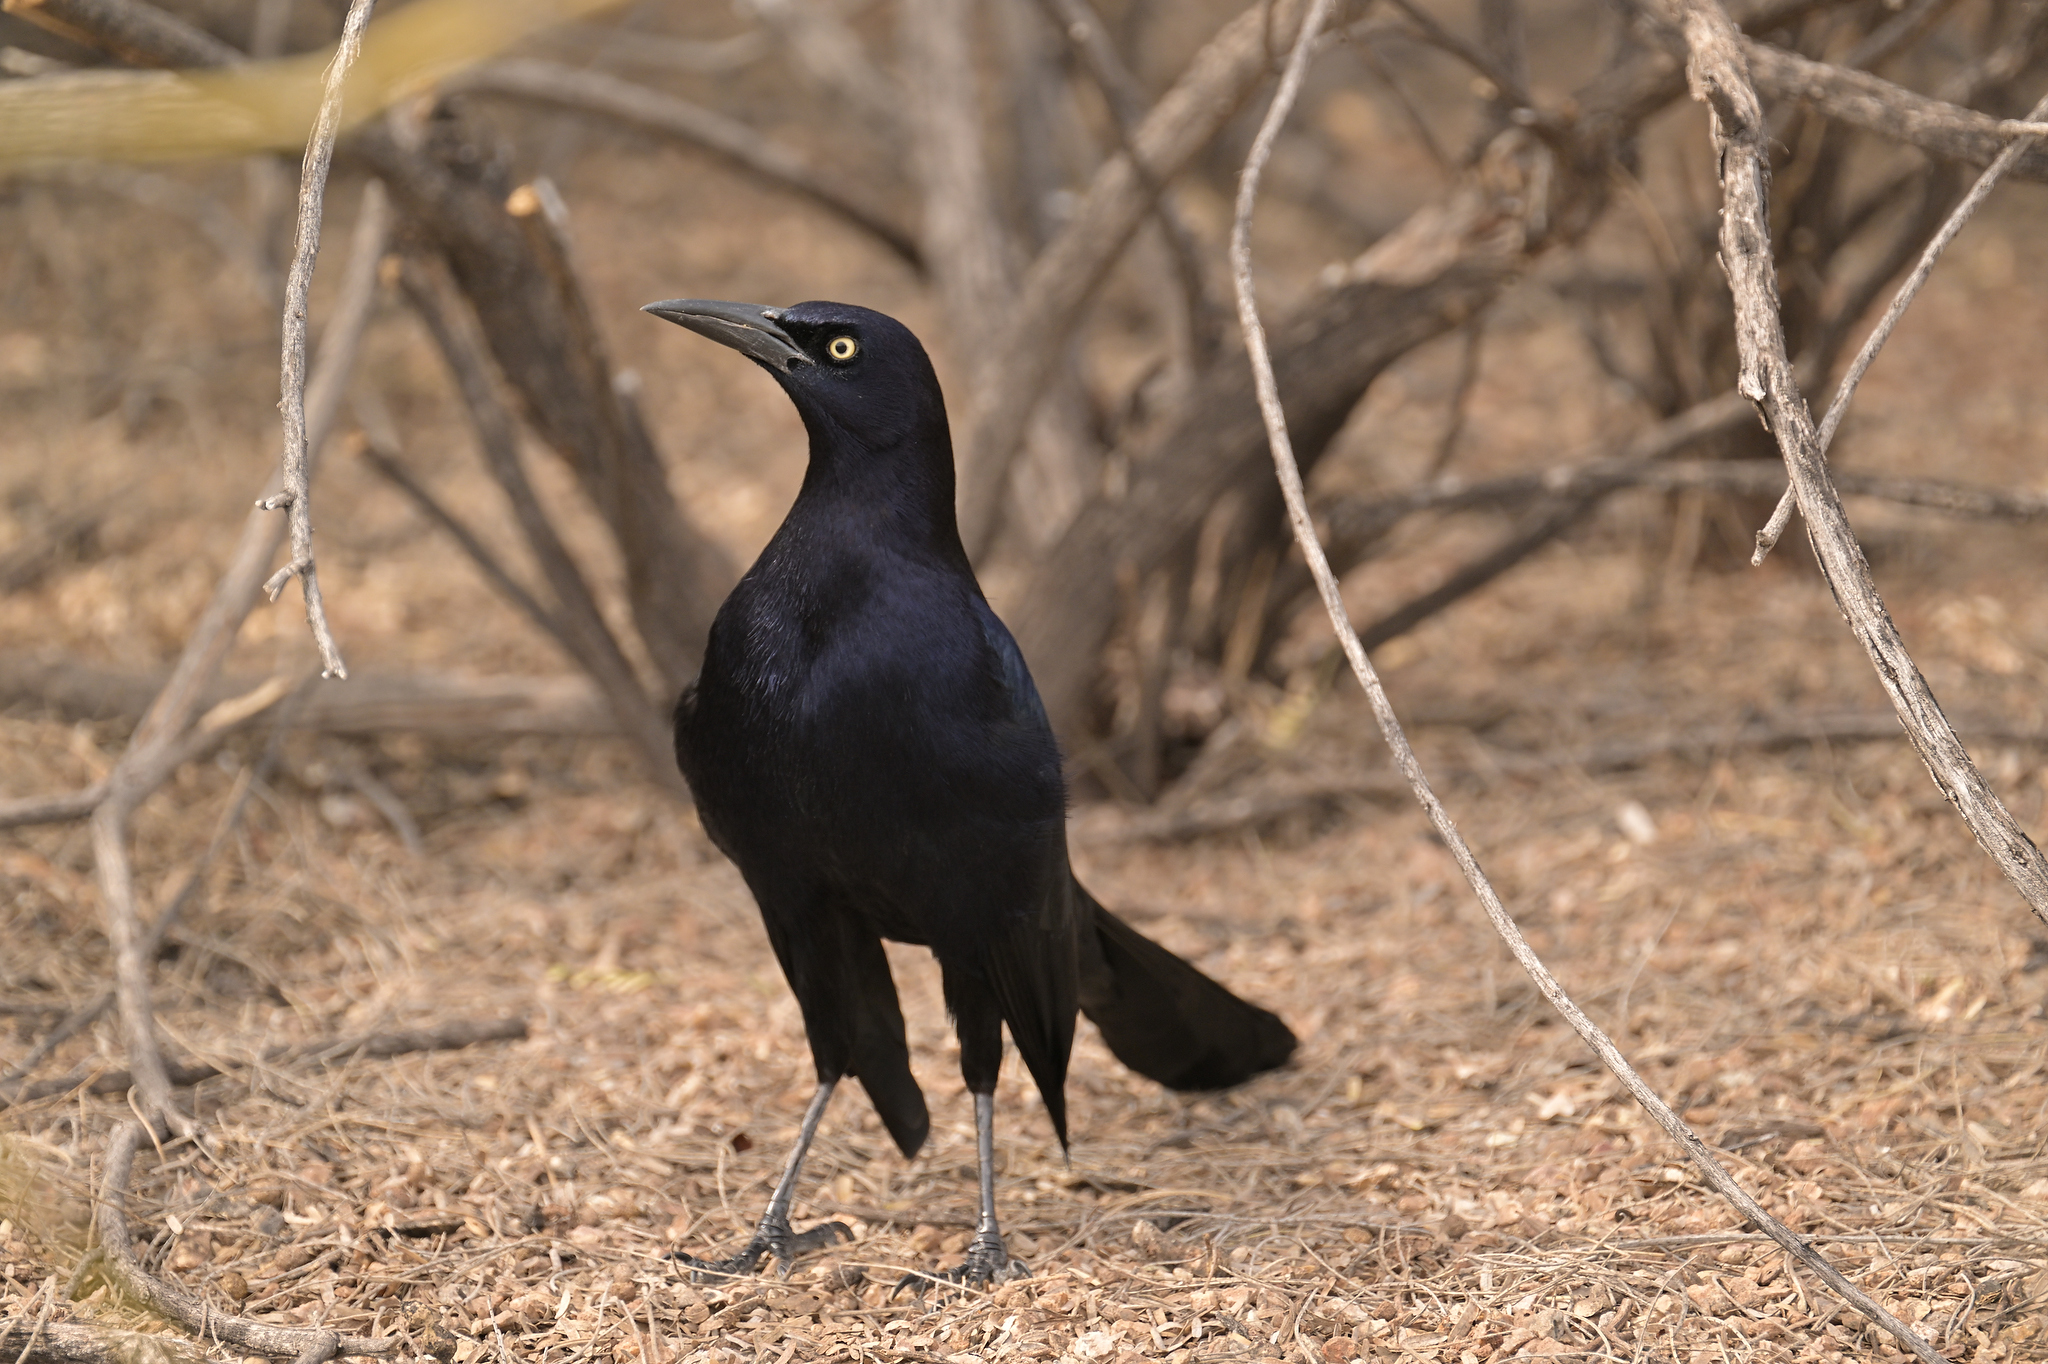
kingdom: Animalia
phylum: Chordata
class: Aves
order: Passeriformes
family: Icteridae
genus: Quiscalus
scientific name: Quiscalus mexicanus
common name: Great-tailed grackle
